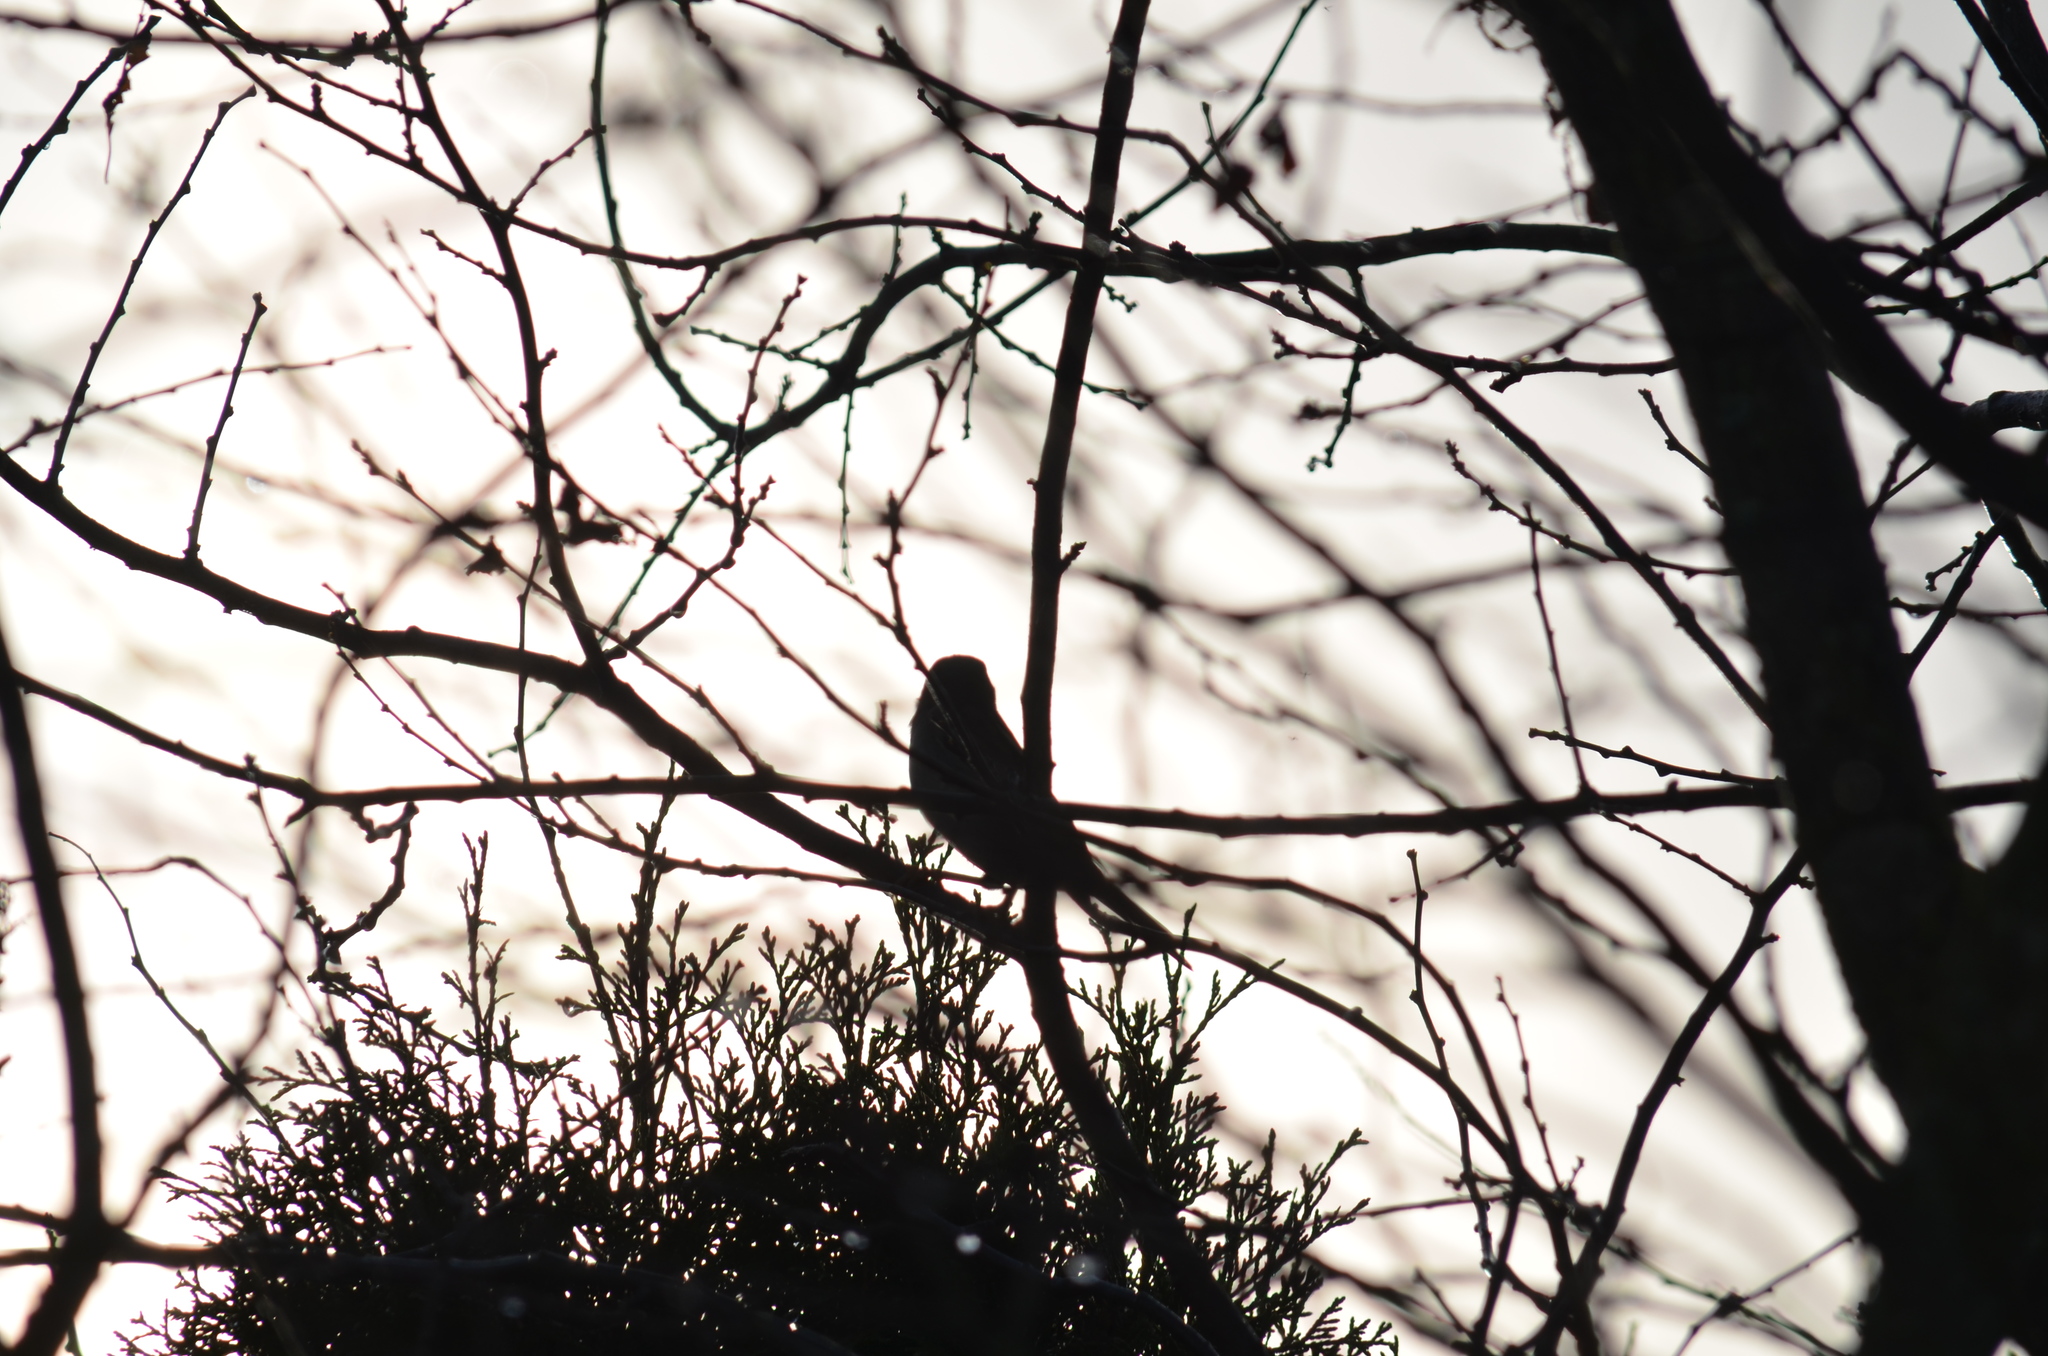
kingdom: Animalia
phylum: Chordata
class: Aves
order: Passeriformes
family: Passeridae
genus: Passer
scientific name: Passer domesticus
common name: House sparrow
